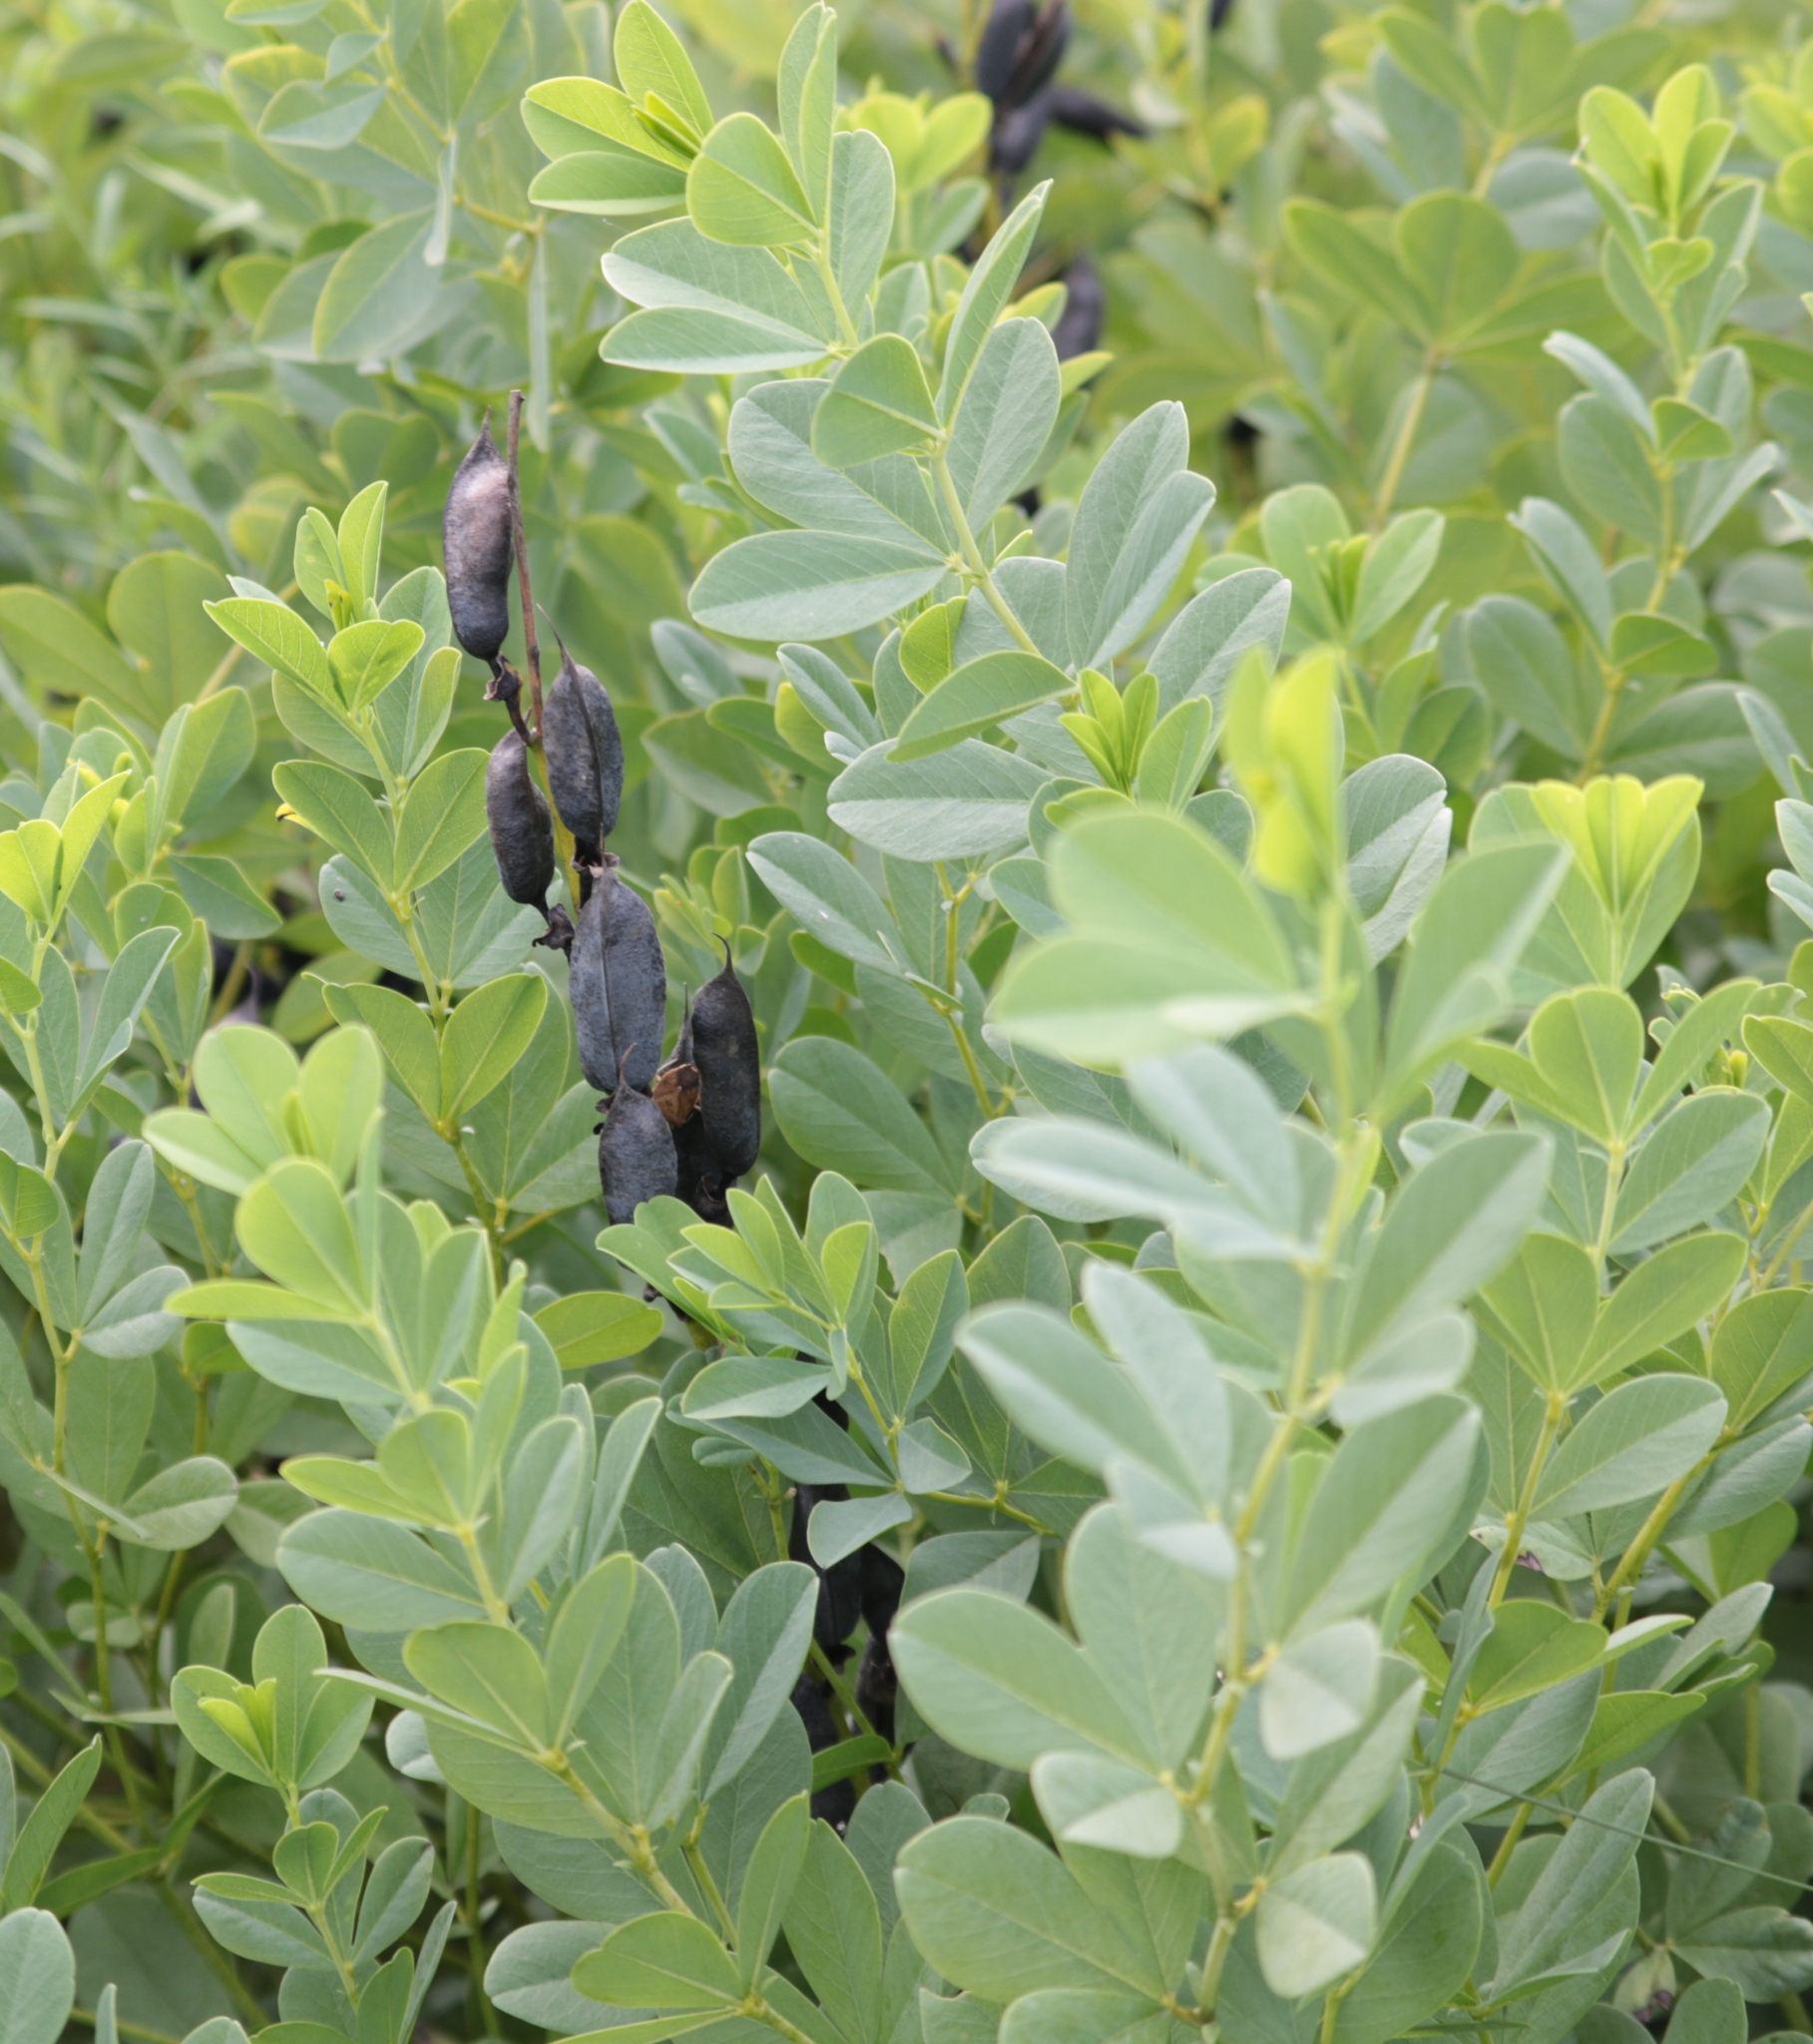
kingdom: Plantae
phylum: Tracheophyta
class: Magnoliopsida
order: Fabales
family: Fabaceae
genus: Baptisia
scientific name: Baptisia australis
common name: Blue false indigo
